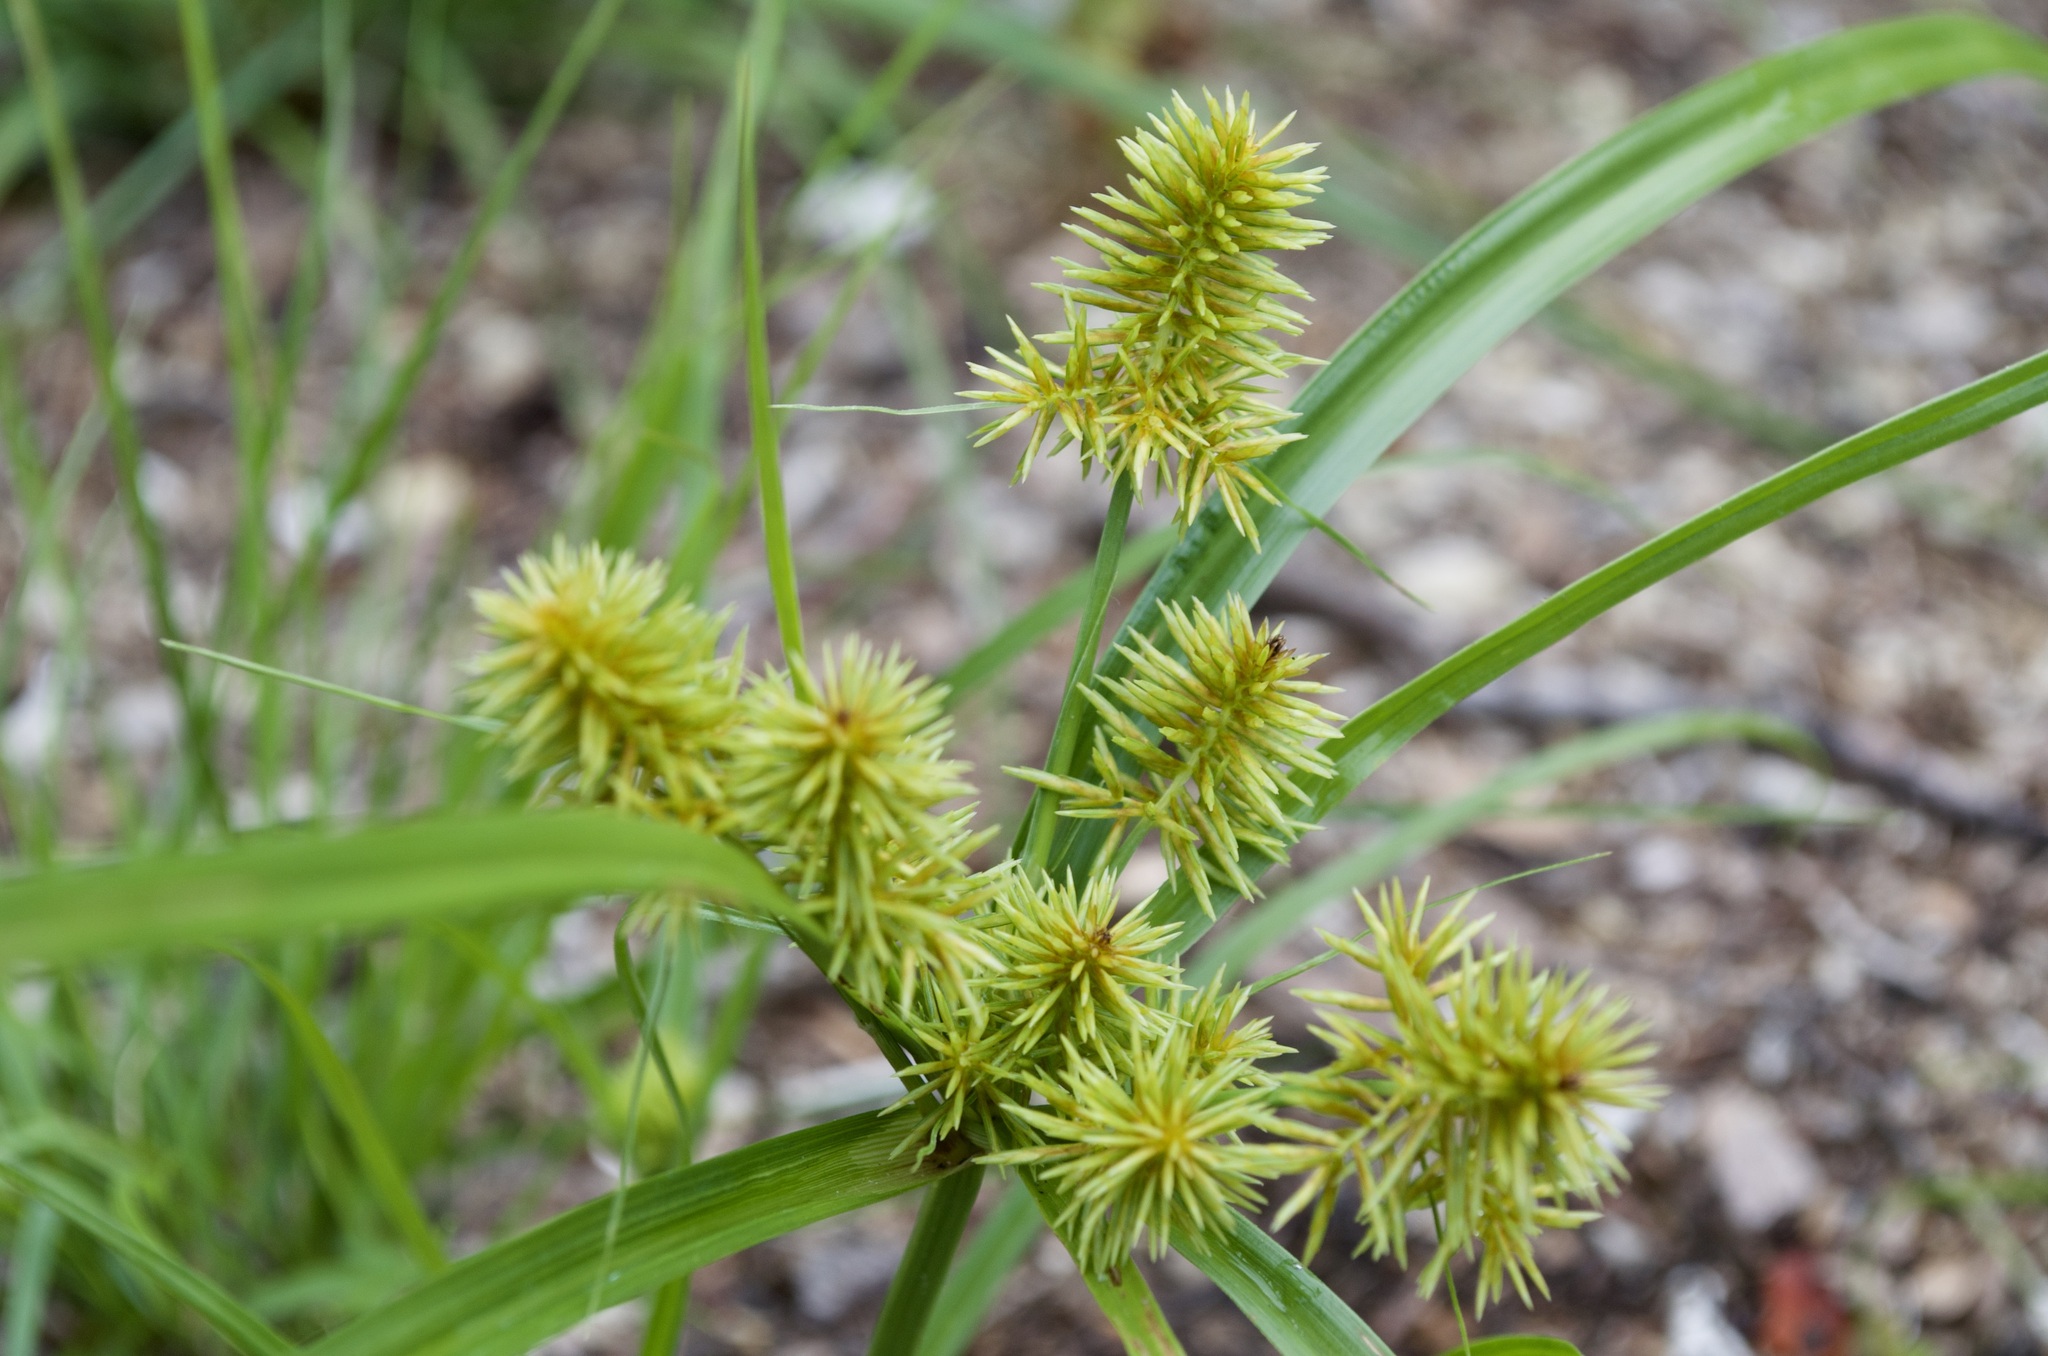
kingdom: Plantae
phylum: Tracheophyta
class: Liliopsida
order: Poales
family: Cyperaceae
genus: Cyperus
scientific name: Cyperus strigosus
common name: False nutsedge
